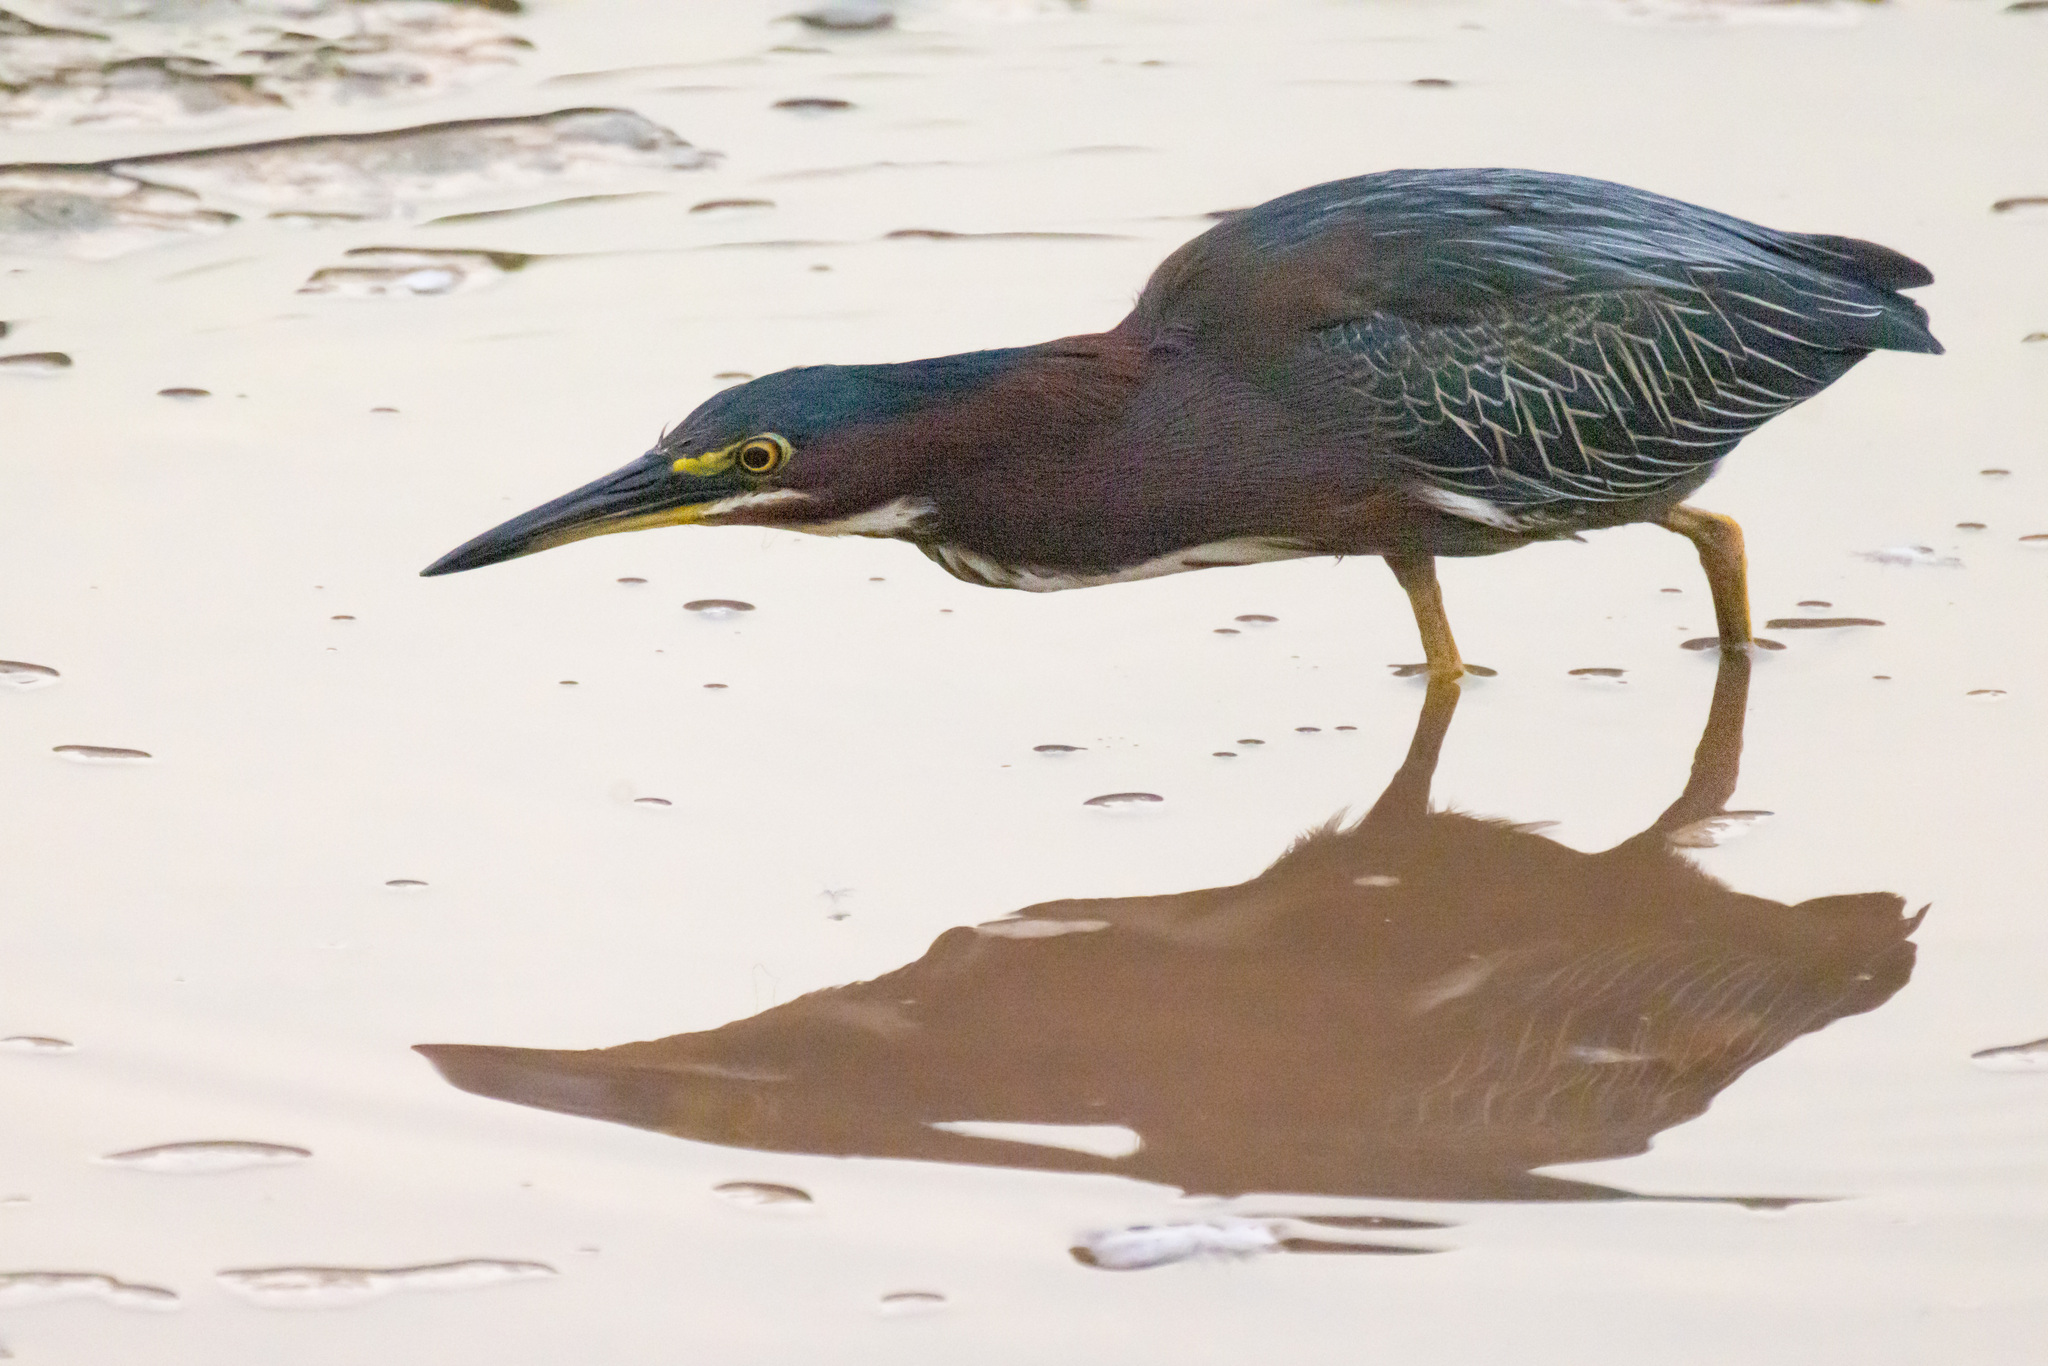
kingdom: Animalia
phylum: Chordata
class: Aves
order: Pelecaniformes
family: Ardeidae
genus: Butorides
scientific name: Butorides virescens
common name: Green heron
